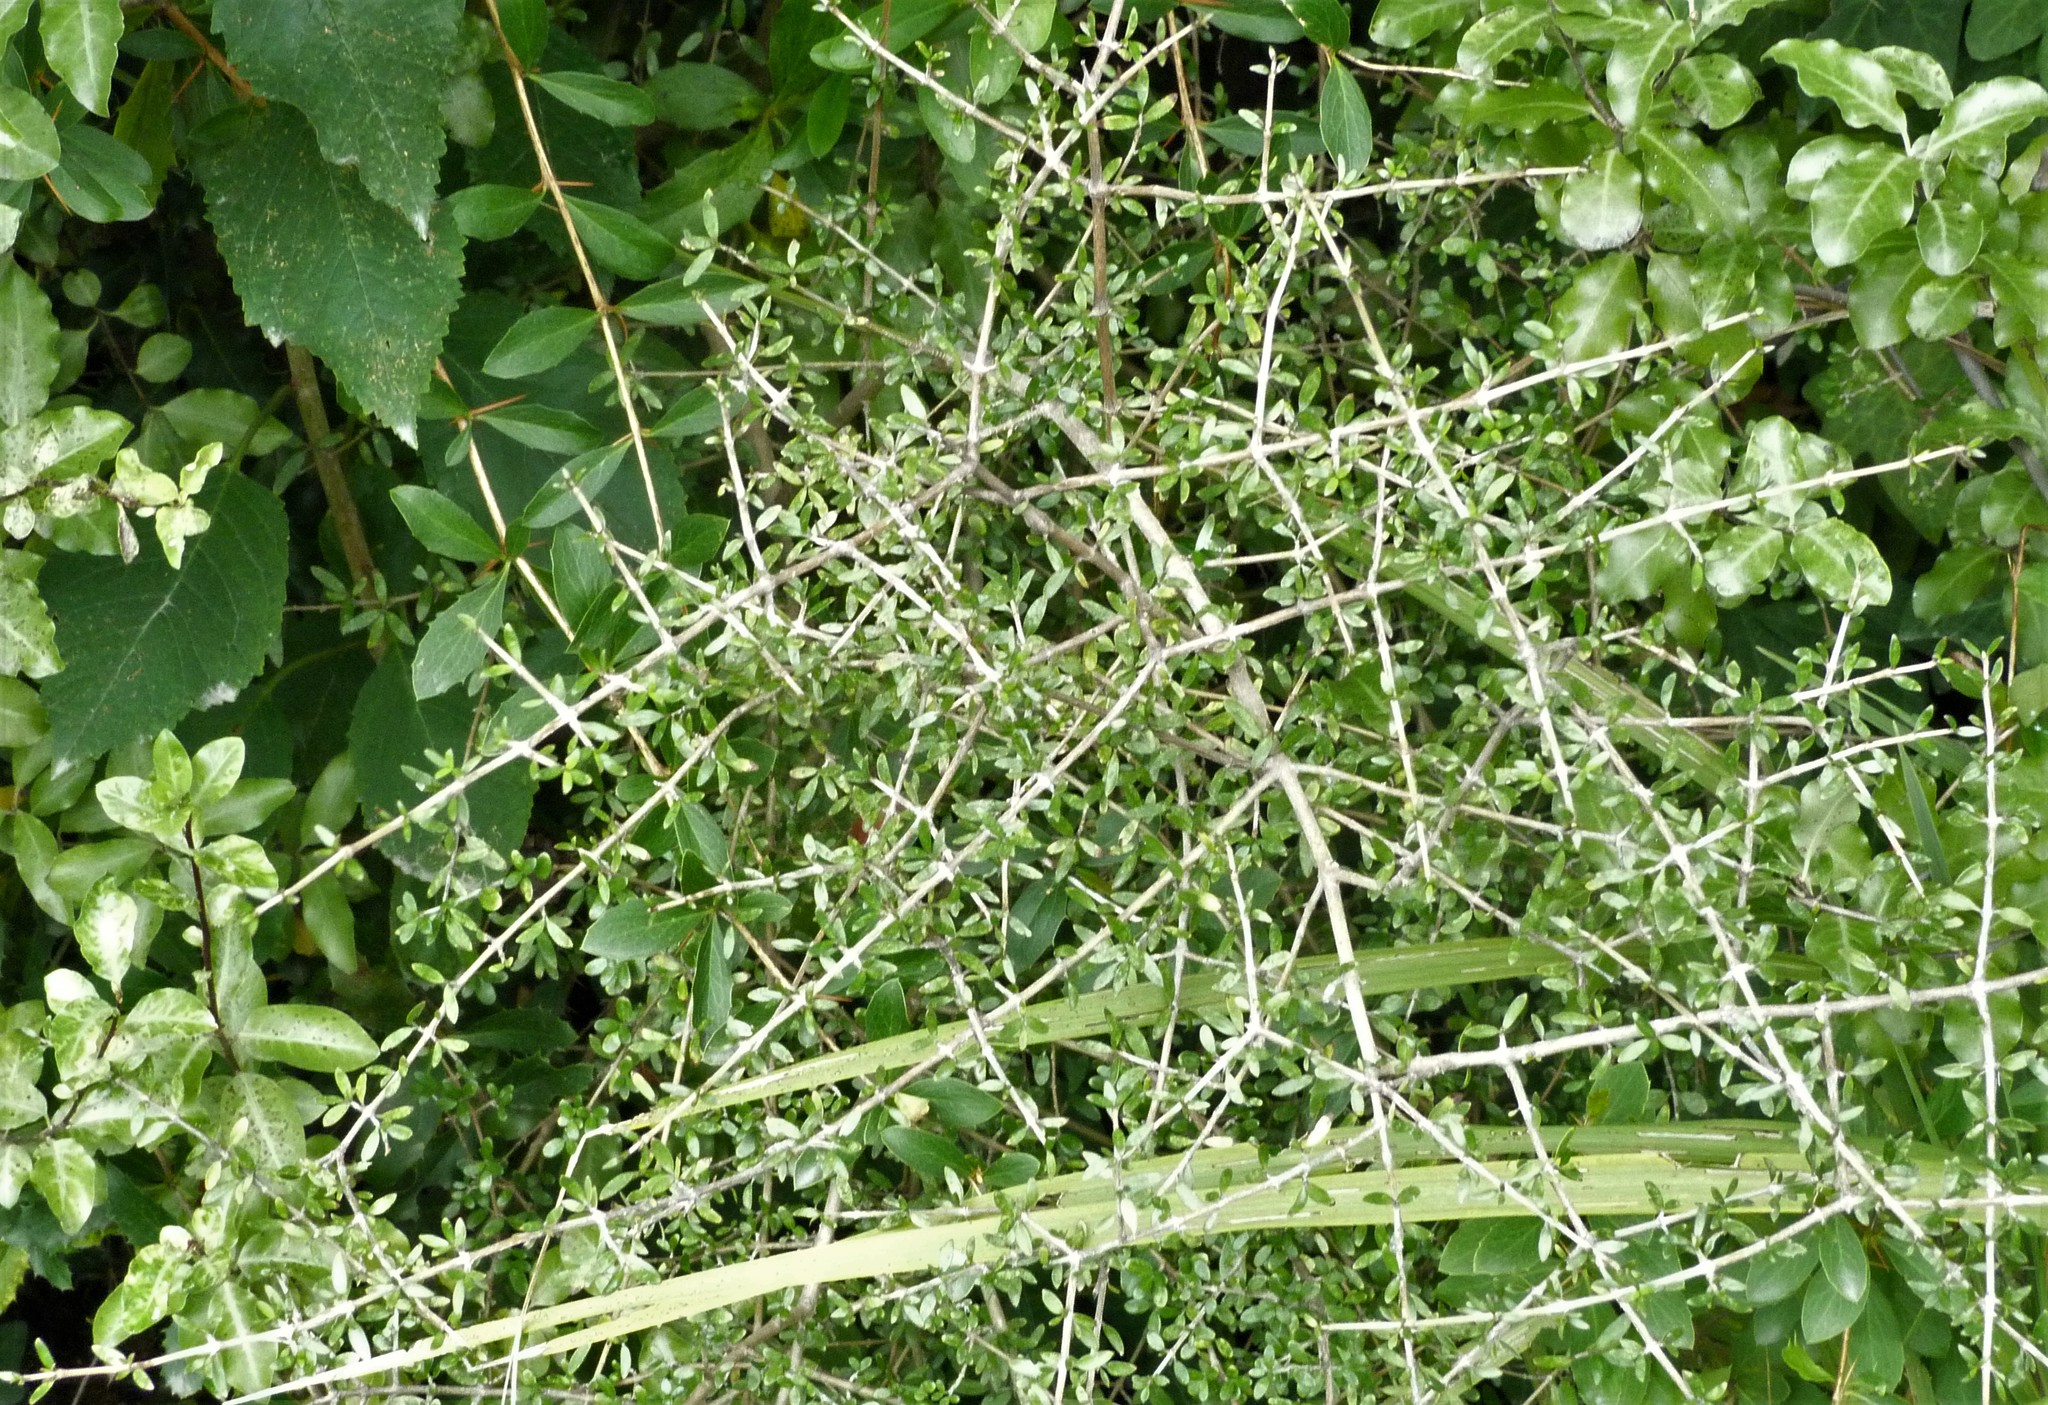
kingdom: Plantae
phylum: Tracheophyta
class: Magnoliopsida
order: Gentianales
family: Rubiaceae
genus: Coprosma
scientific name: Coprosma propinqua
